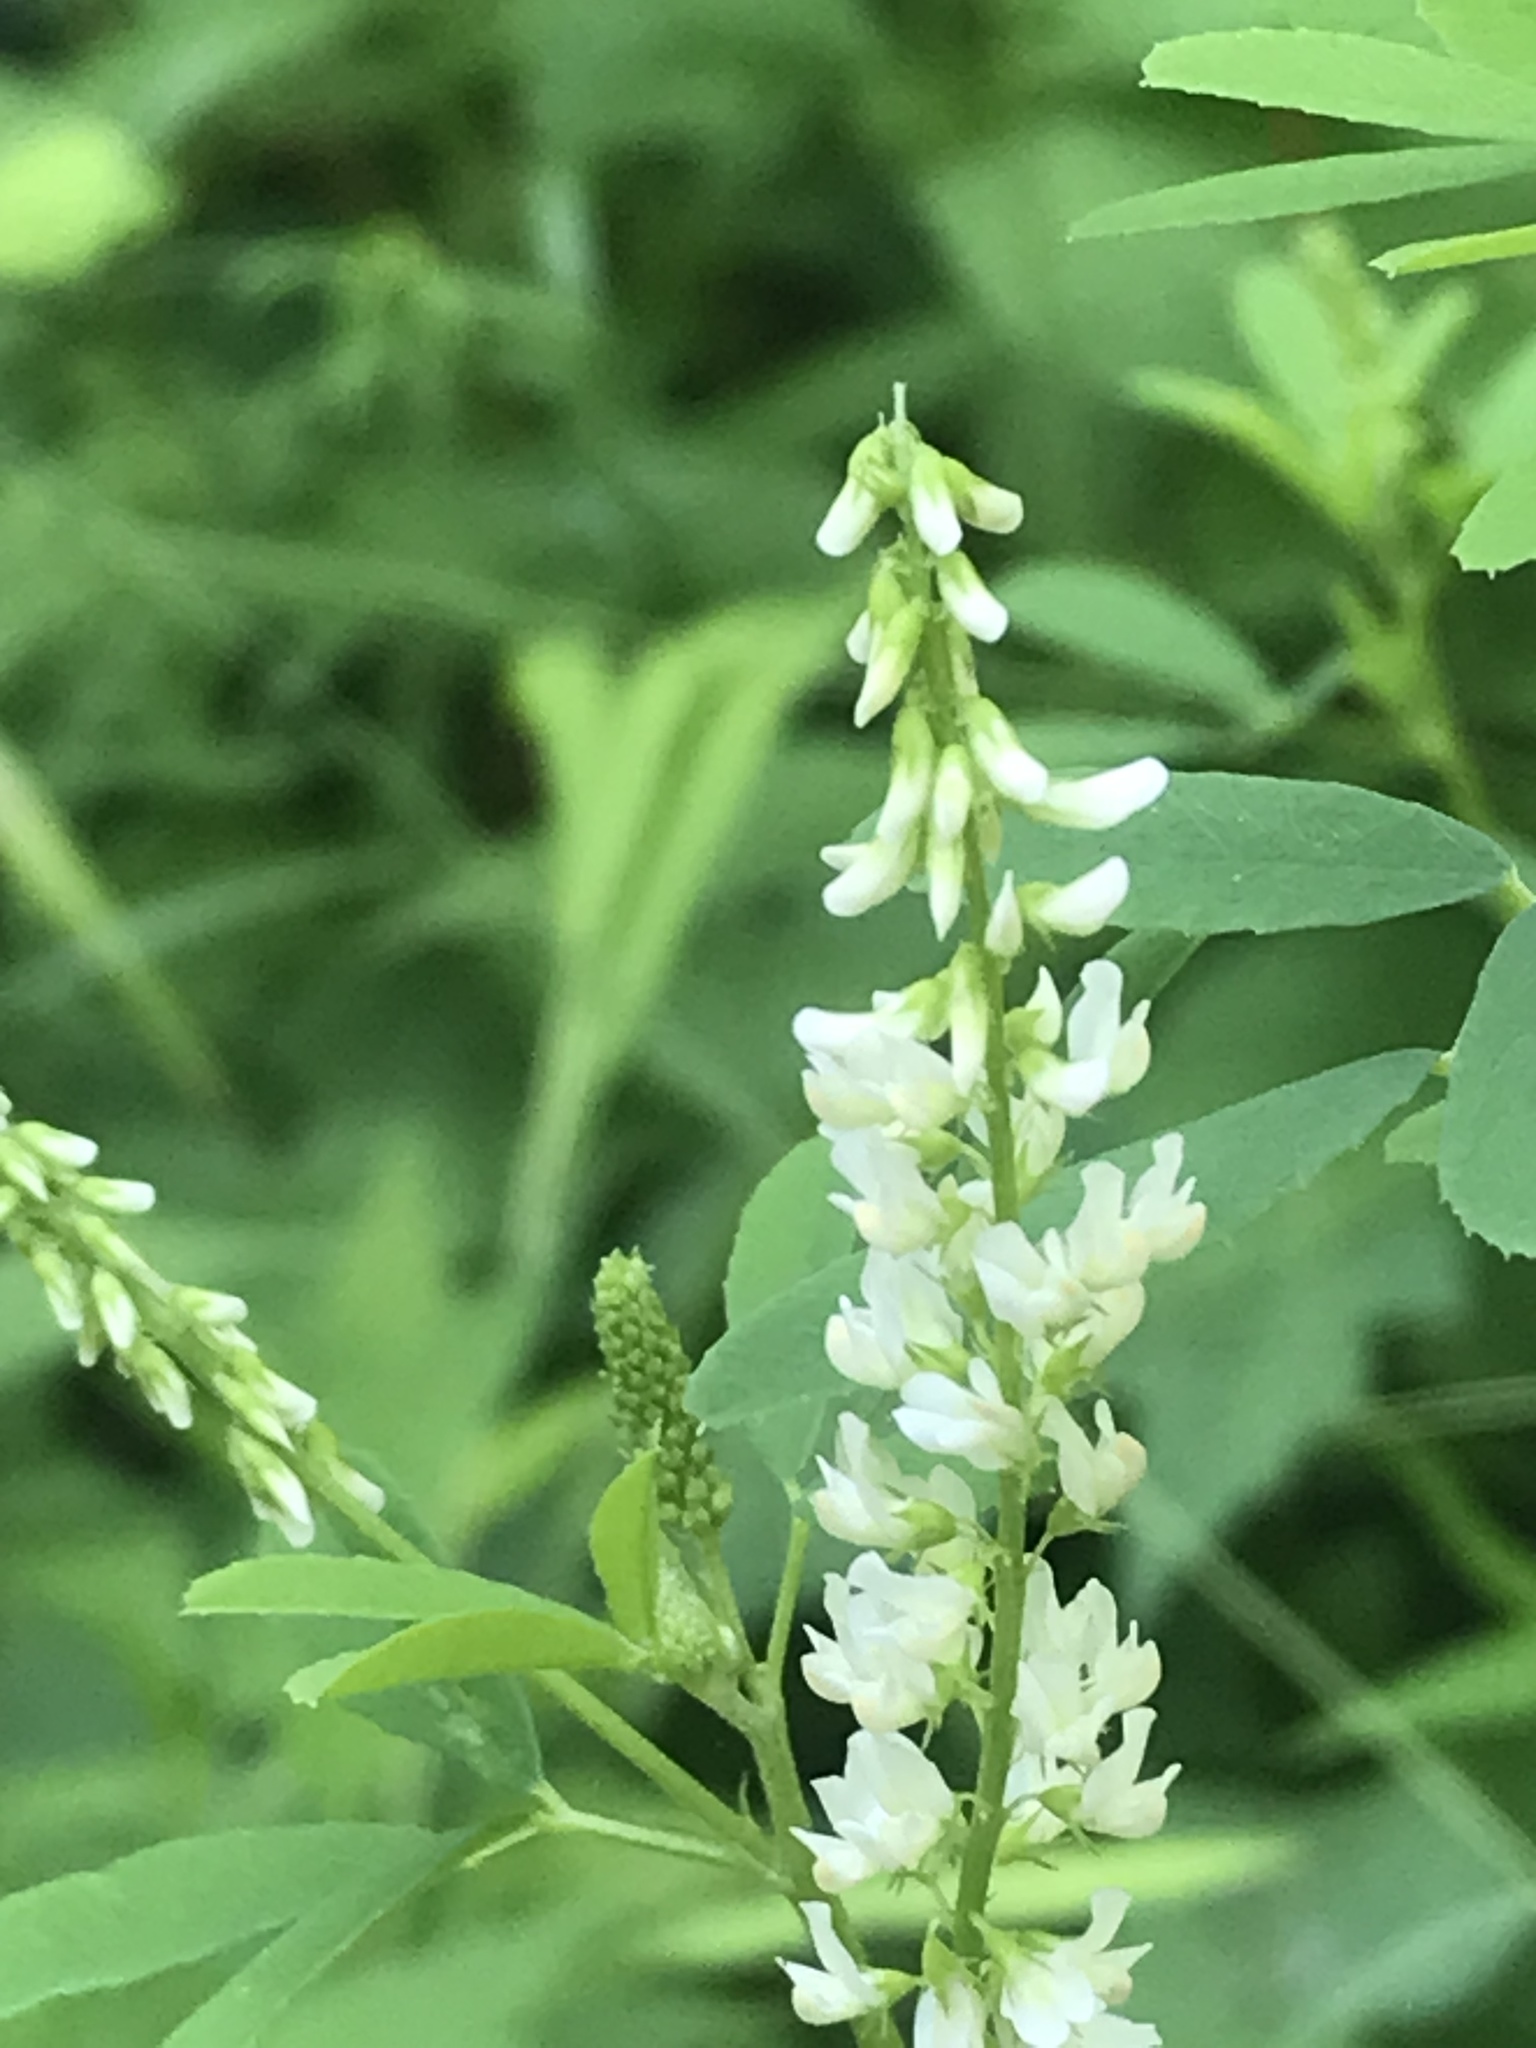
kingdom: Plantae
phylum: Tracheophyta
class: Magnoliopsida
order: Fabales
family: Fabaceae
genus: Melilotus
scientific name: Melilotus albus
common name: White melilot
